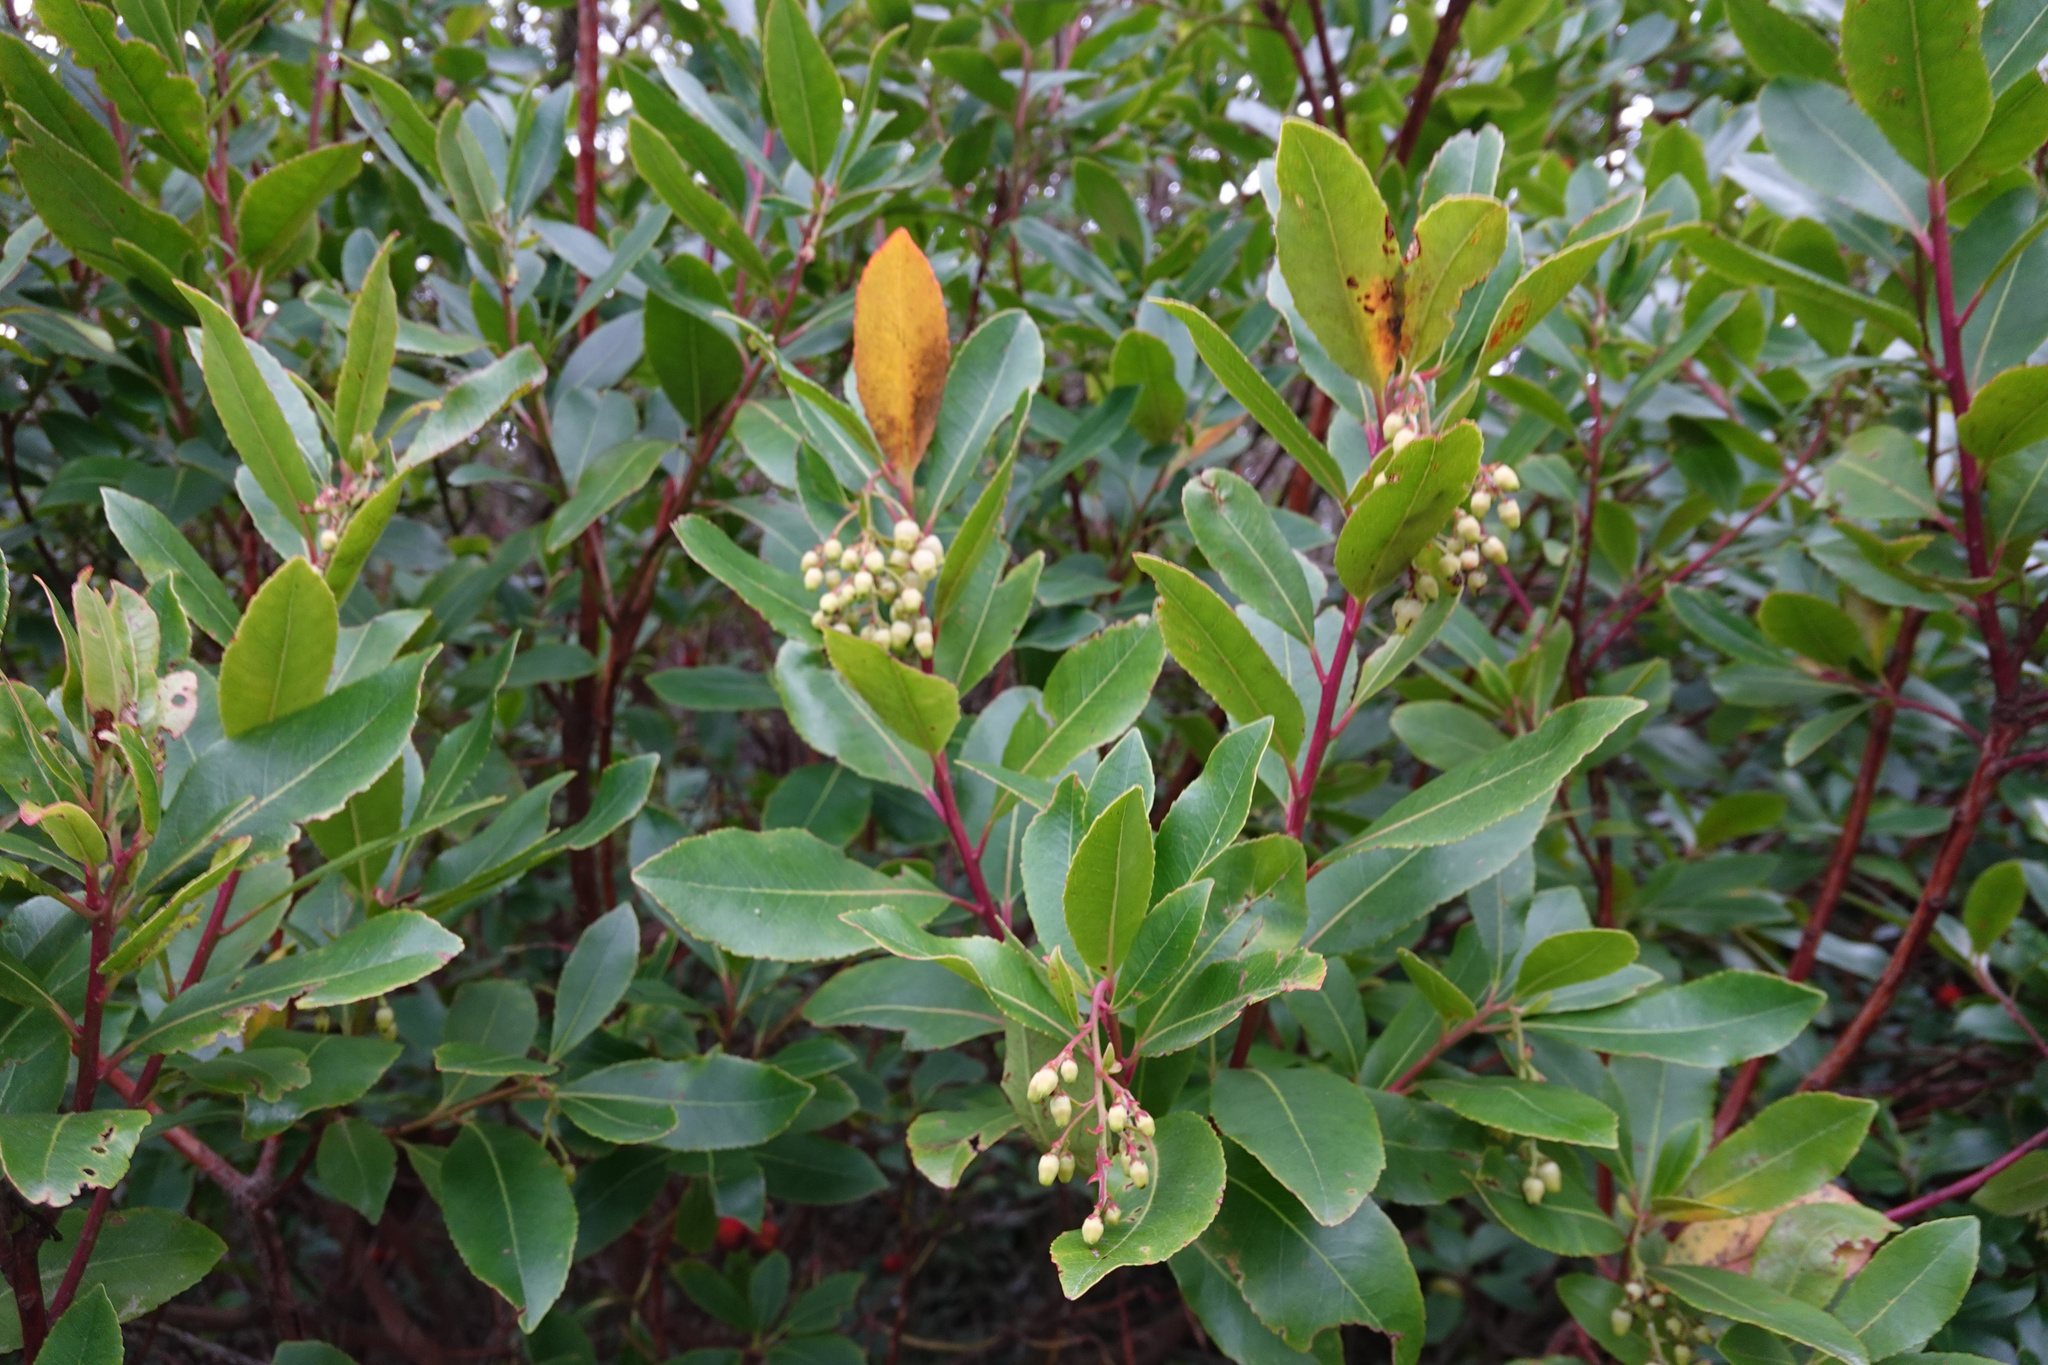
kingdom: Plantae
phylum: Tracheophyta
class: Magnoliopsida
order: Ericales
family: Ericaceae
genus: Arbutus
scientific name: Arbutus unedo
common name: Strawberry-tree
